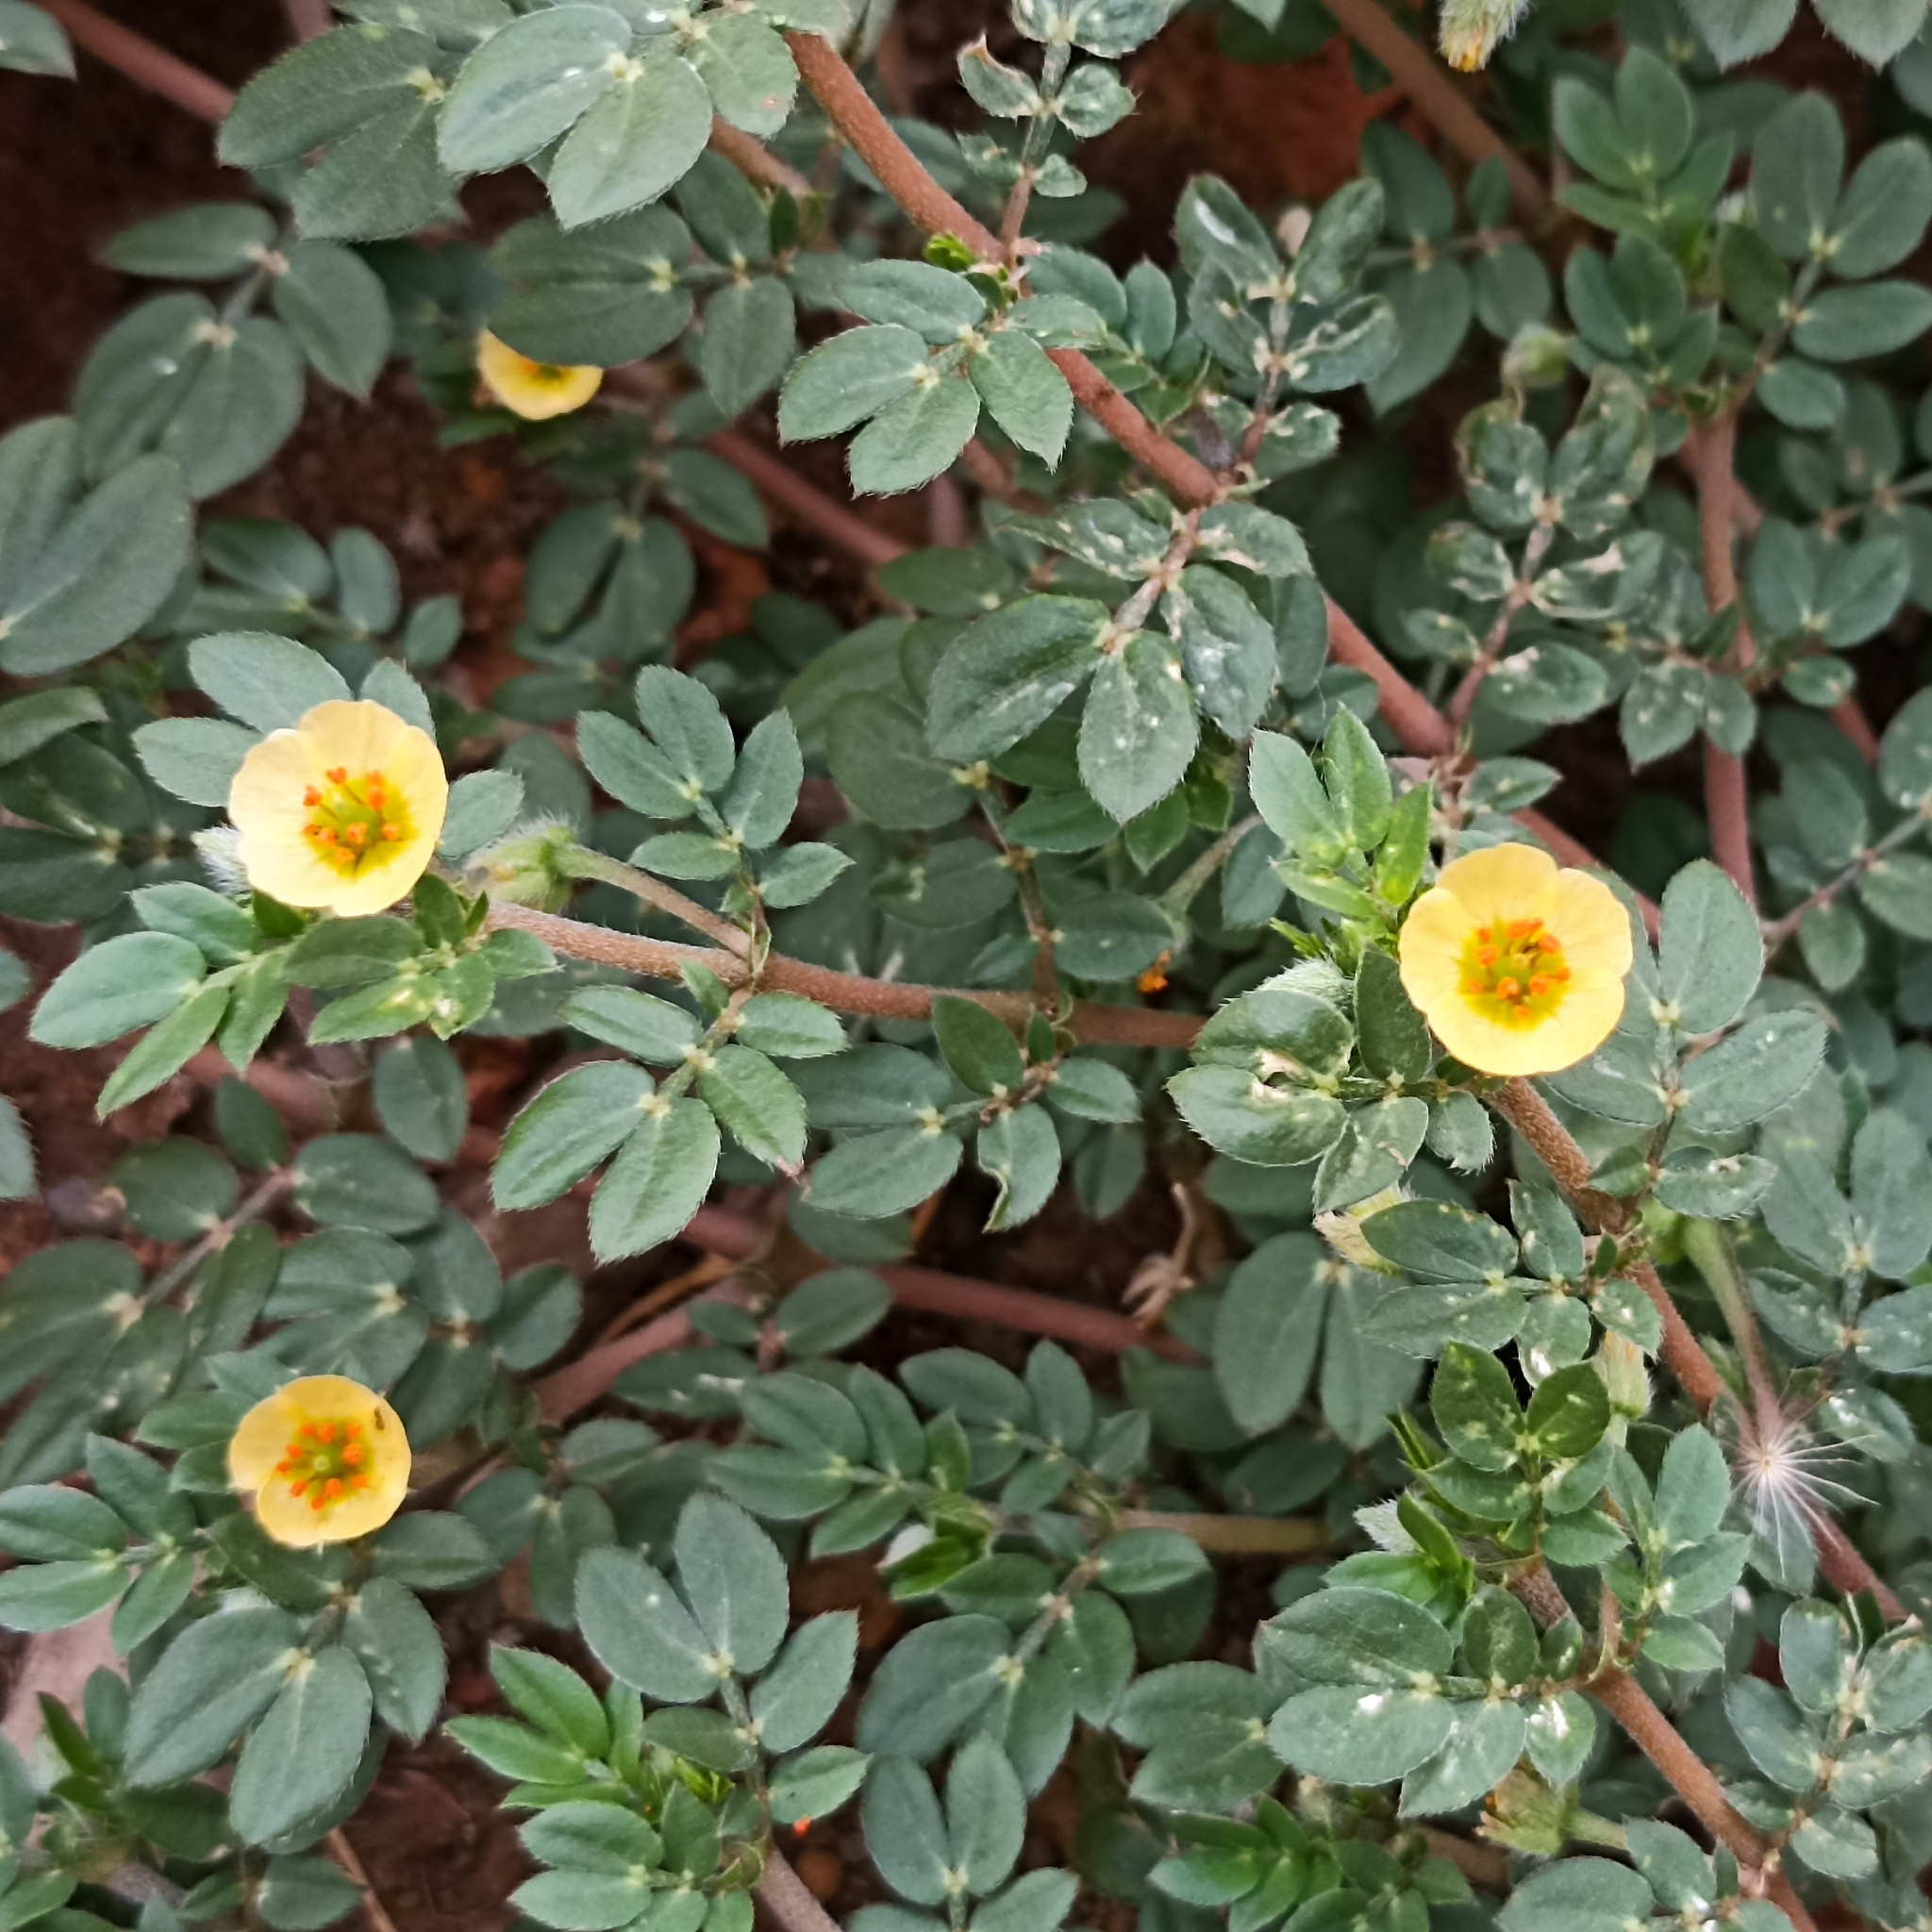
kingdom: Plantae
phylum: Tracheophyta
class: Magnoliopsida
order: Zygophyllales
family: Zygophyllaceae
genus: Kallstroemia
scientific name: Kallstroemia maxima
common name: Big caltropa
